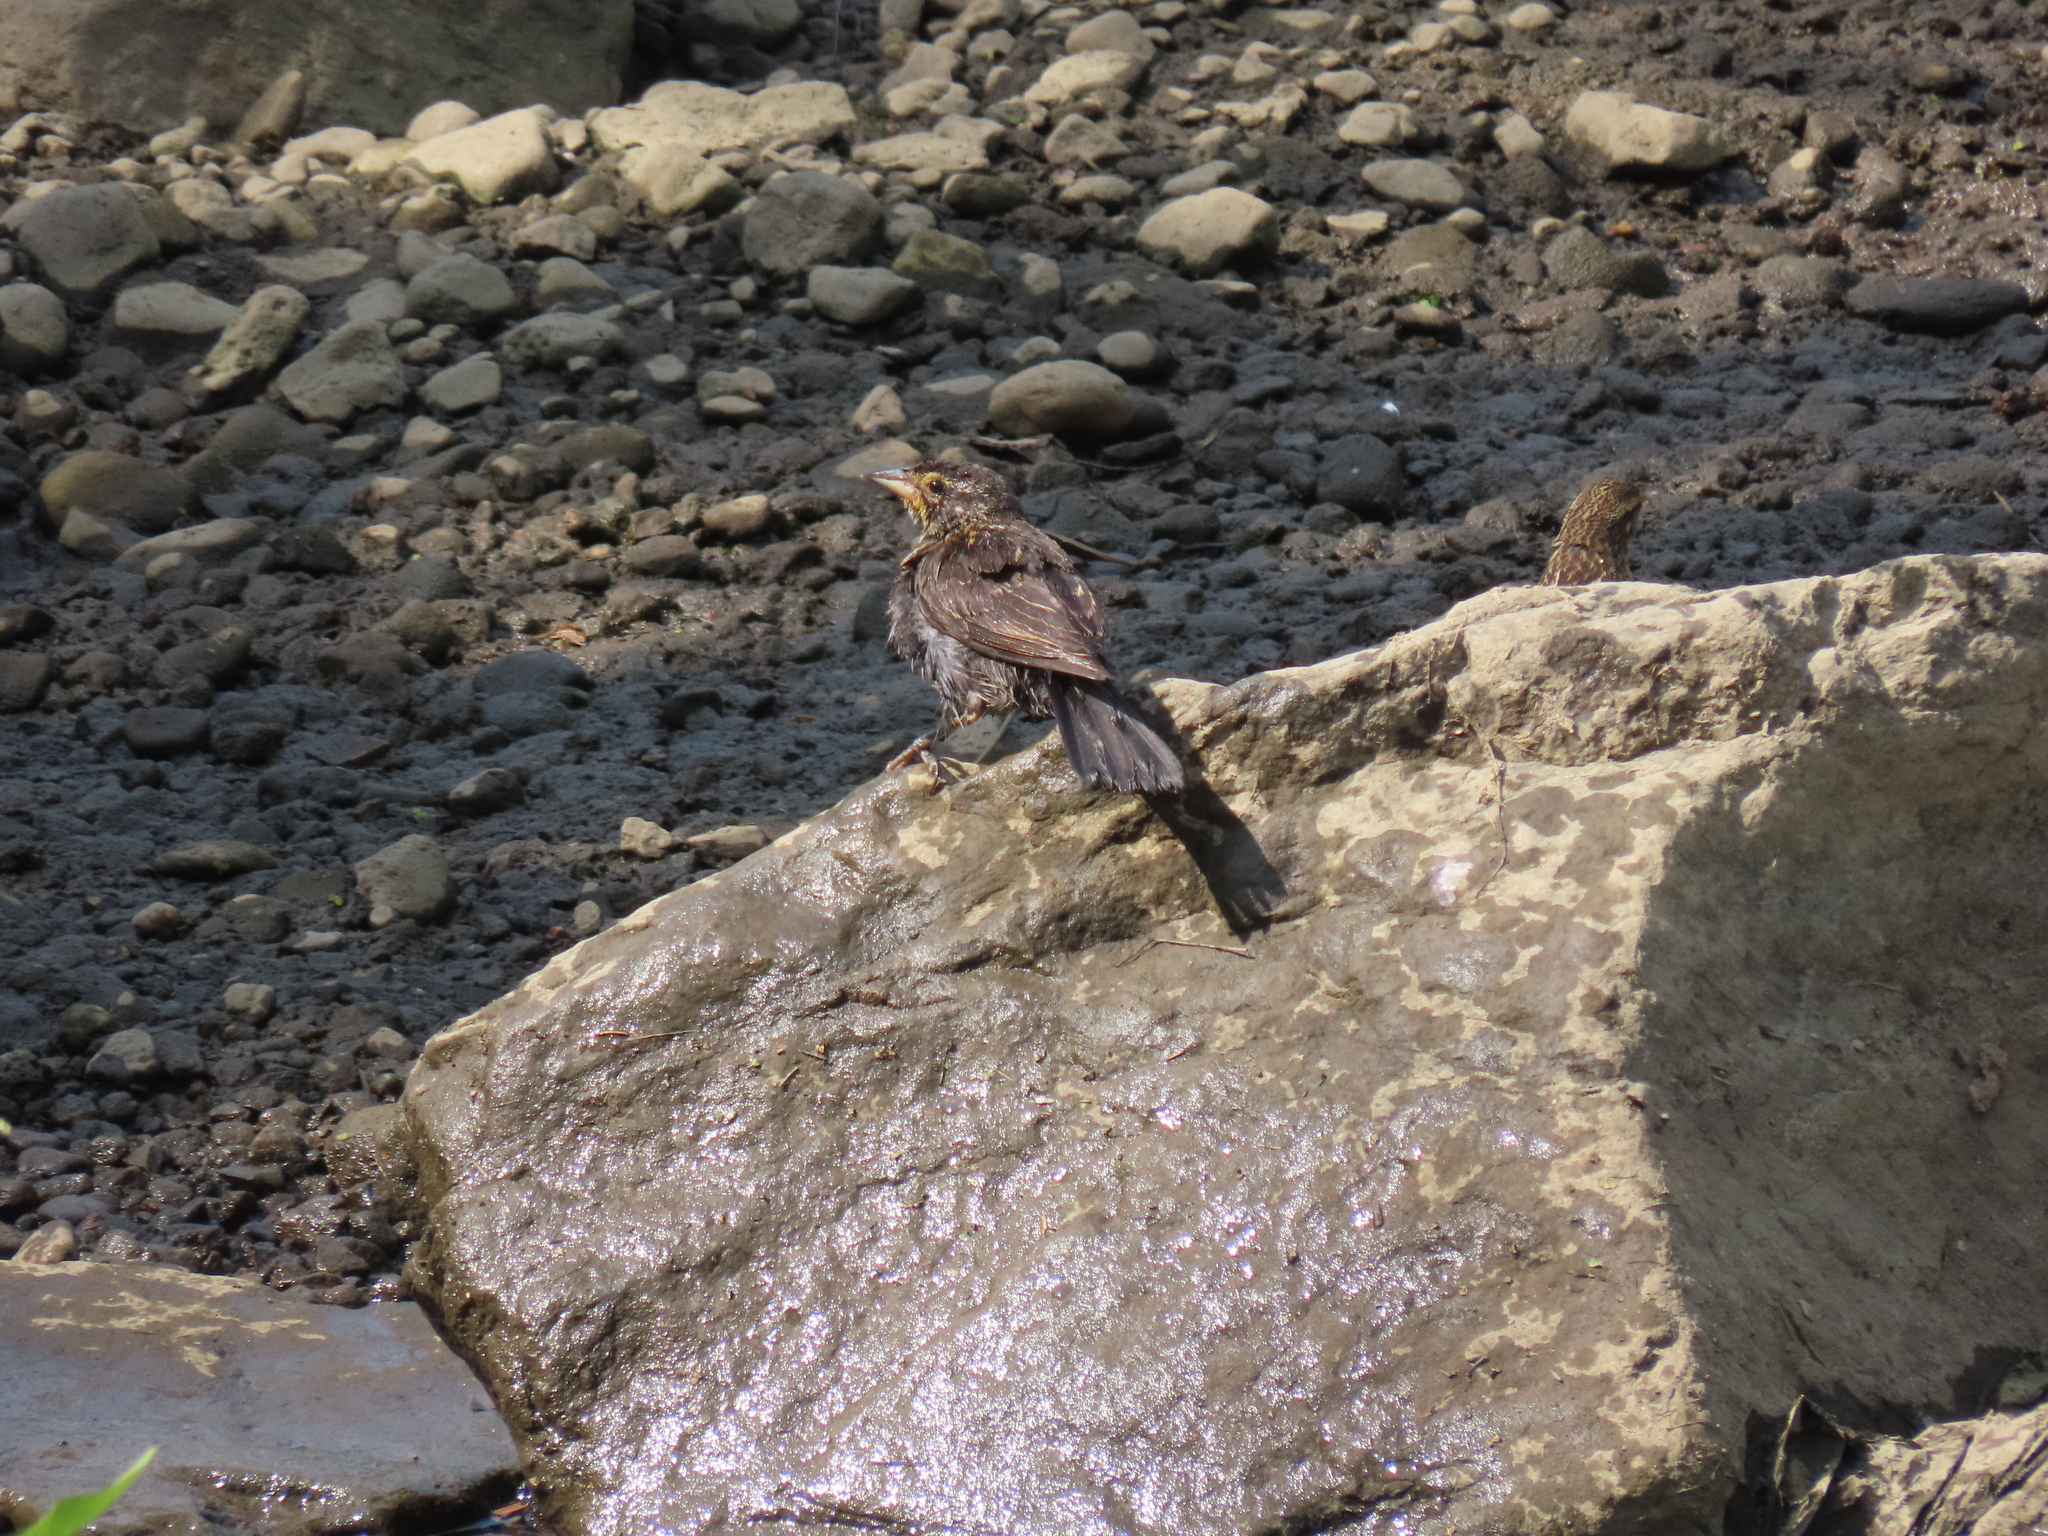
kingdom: Animalia
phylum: Chordata
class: Aves
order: Passeriformes
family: Icteridae
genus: Agelaius
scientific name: Agelaius phoeniceus
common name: Red-winged blackbird
